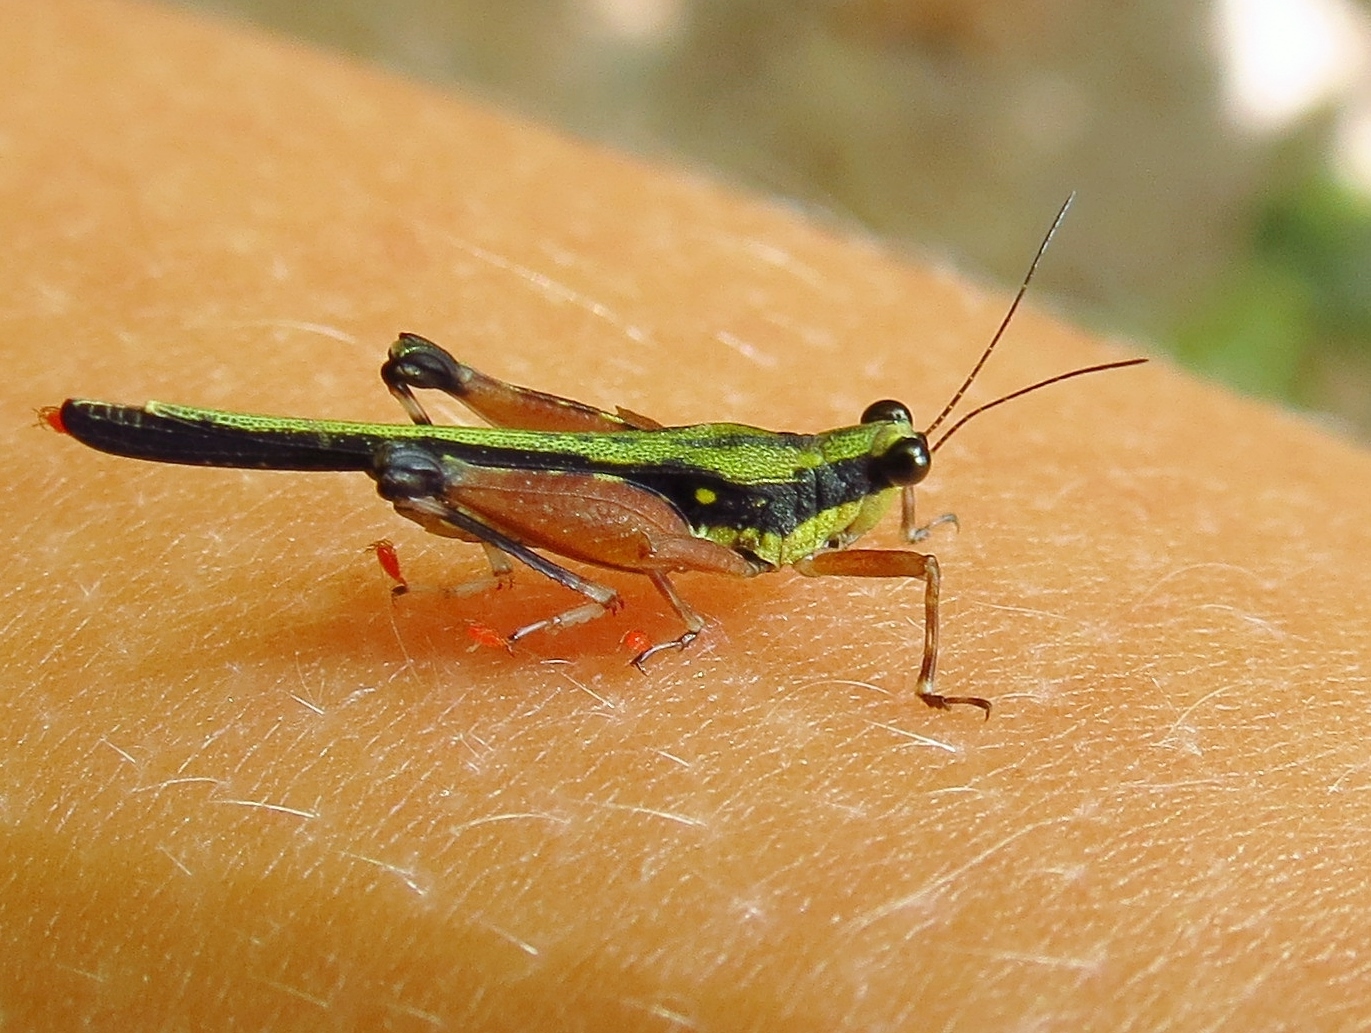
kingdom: Animalia
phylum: Arthropoda
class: Insecta
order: Orthoptera
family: Tetrigidae
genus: Scaria
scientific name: Scaria fasciata
